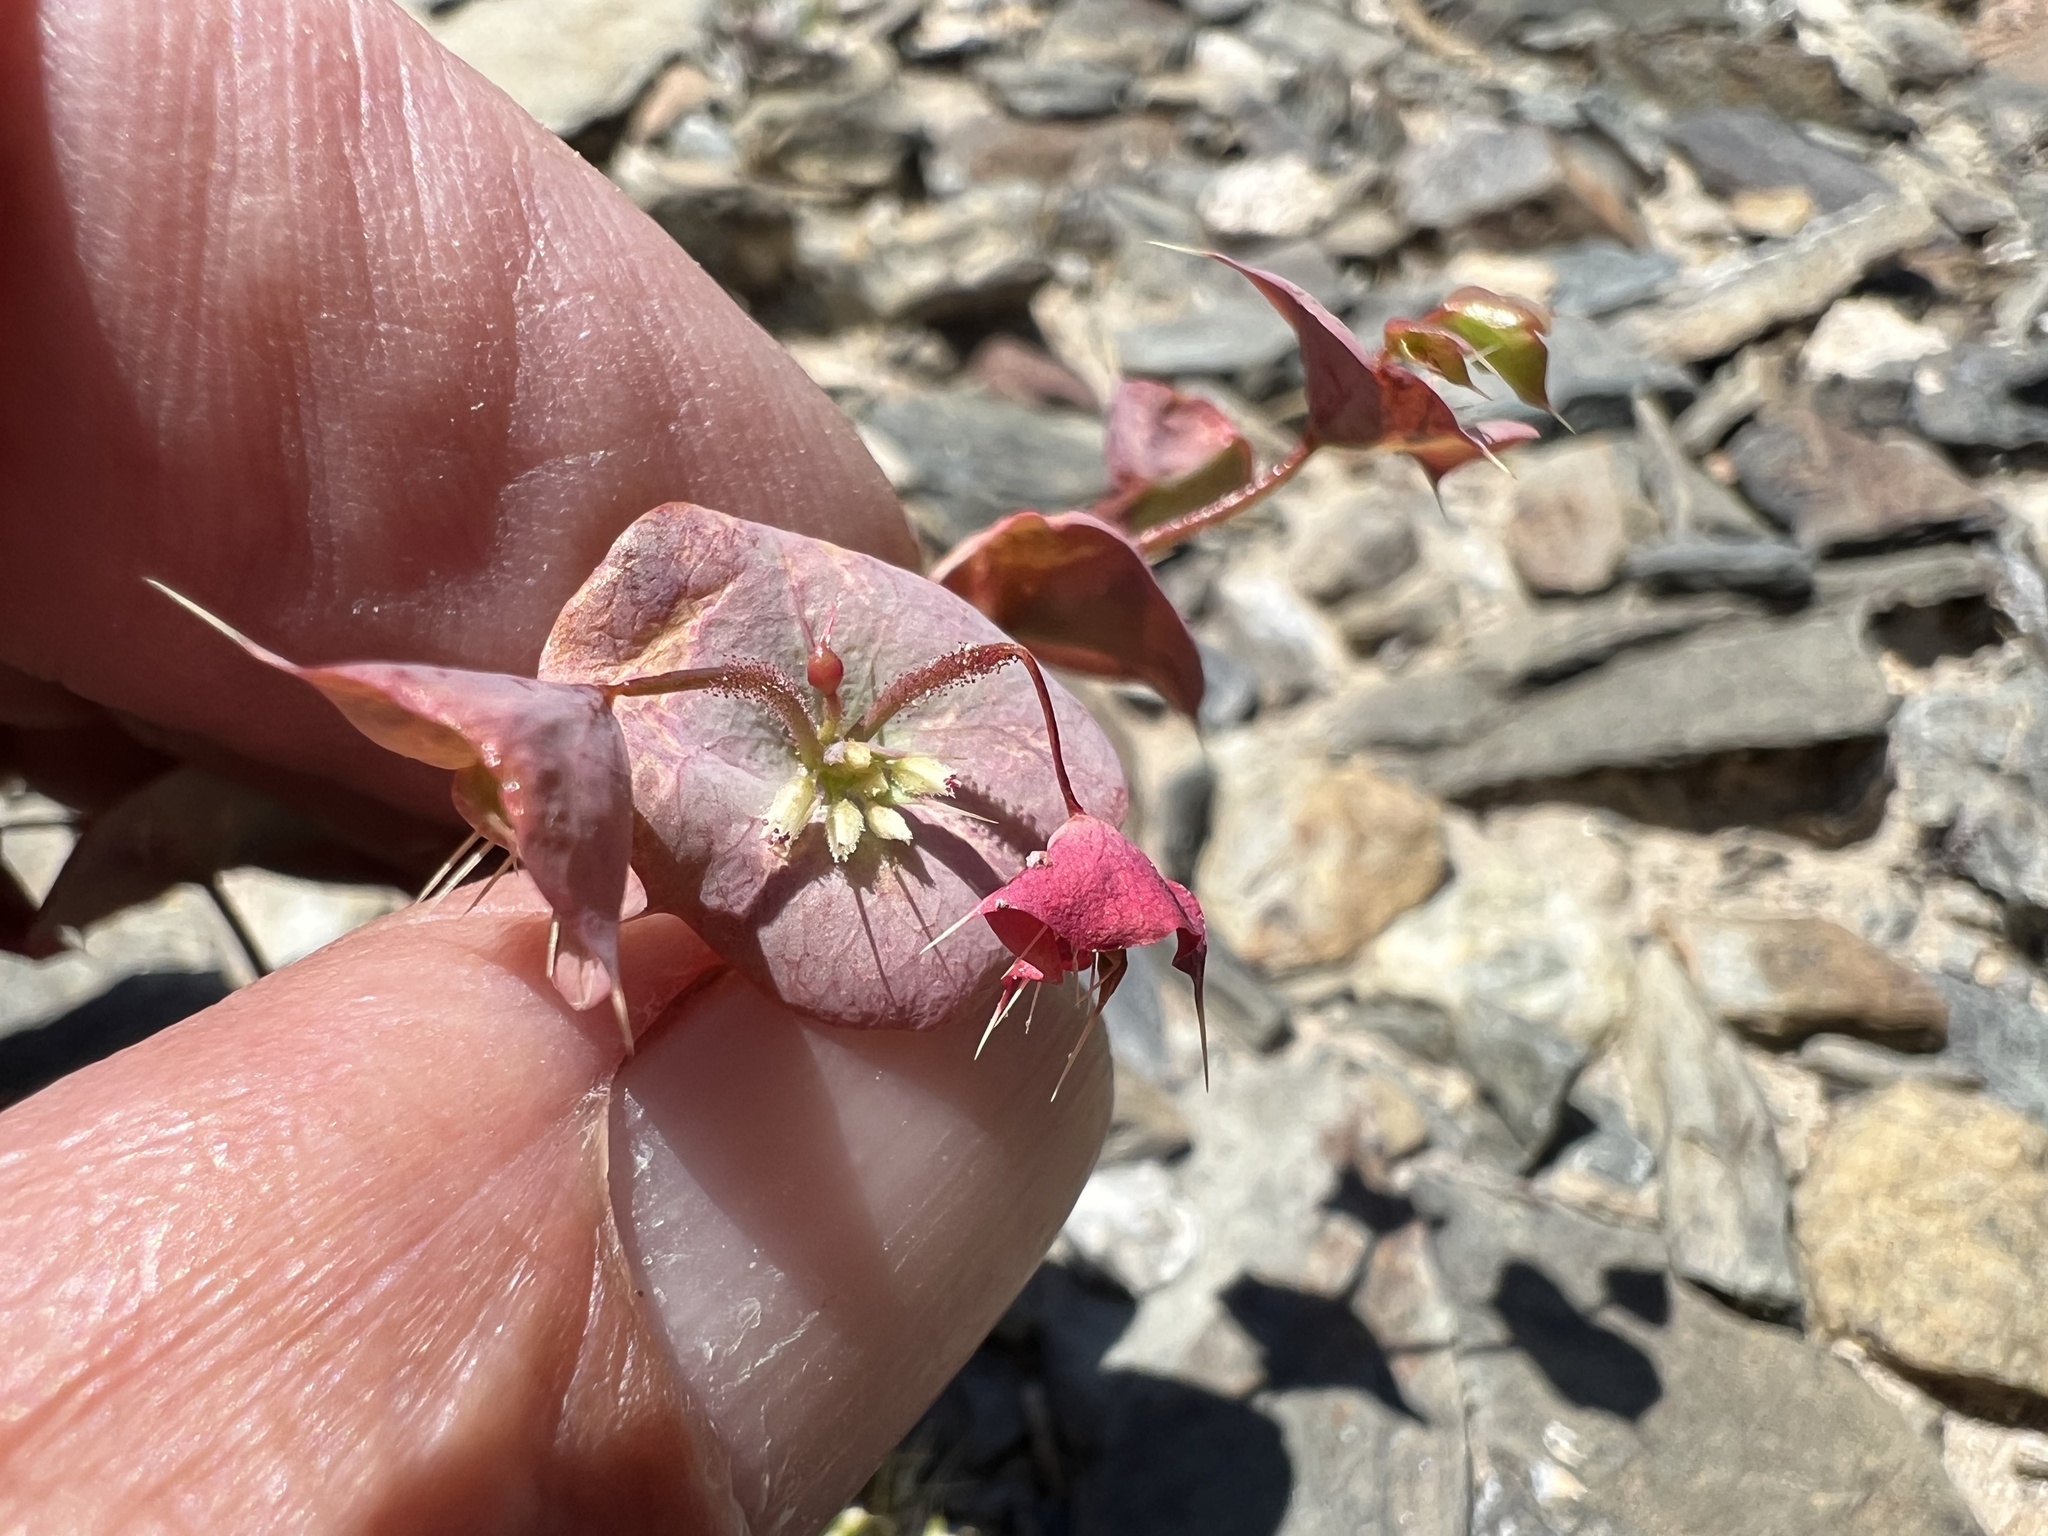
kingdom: Plantae
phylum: Tracheophyta
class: Magnoliopsida
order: Caryophyllales
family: Polygonaceae
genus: Oxytheca
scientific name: Oxytheca perfoliata
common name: Round-leaf puncturebract
